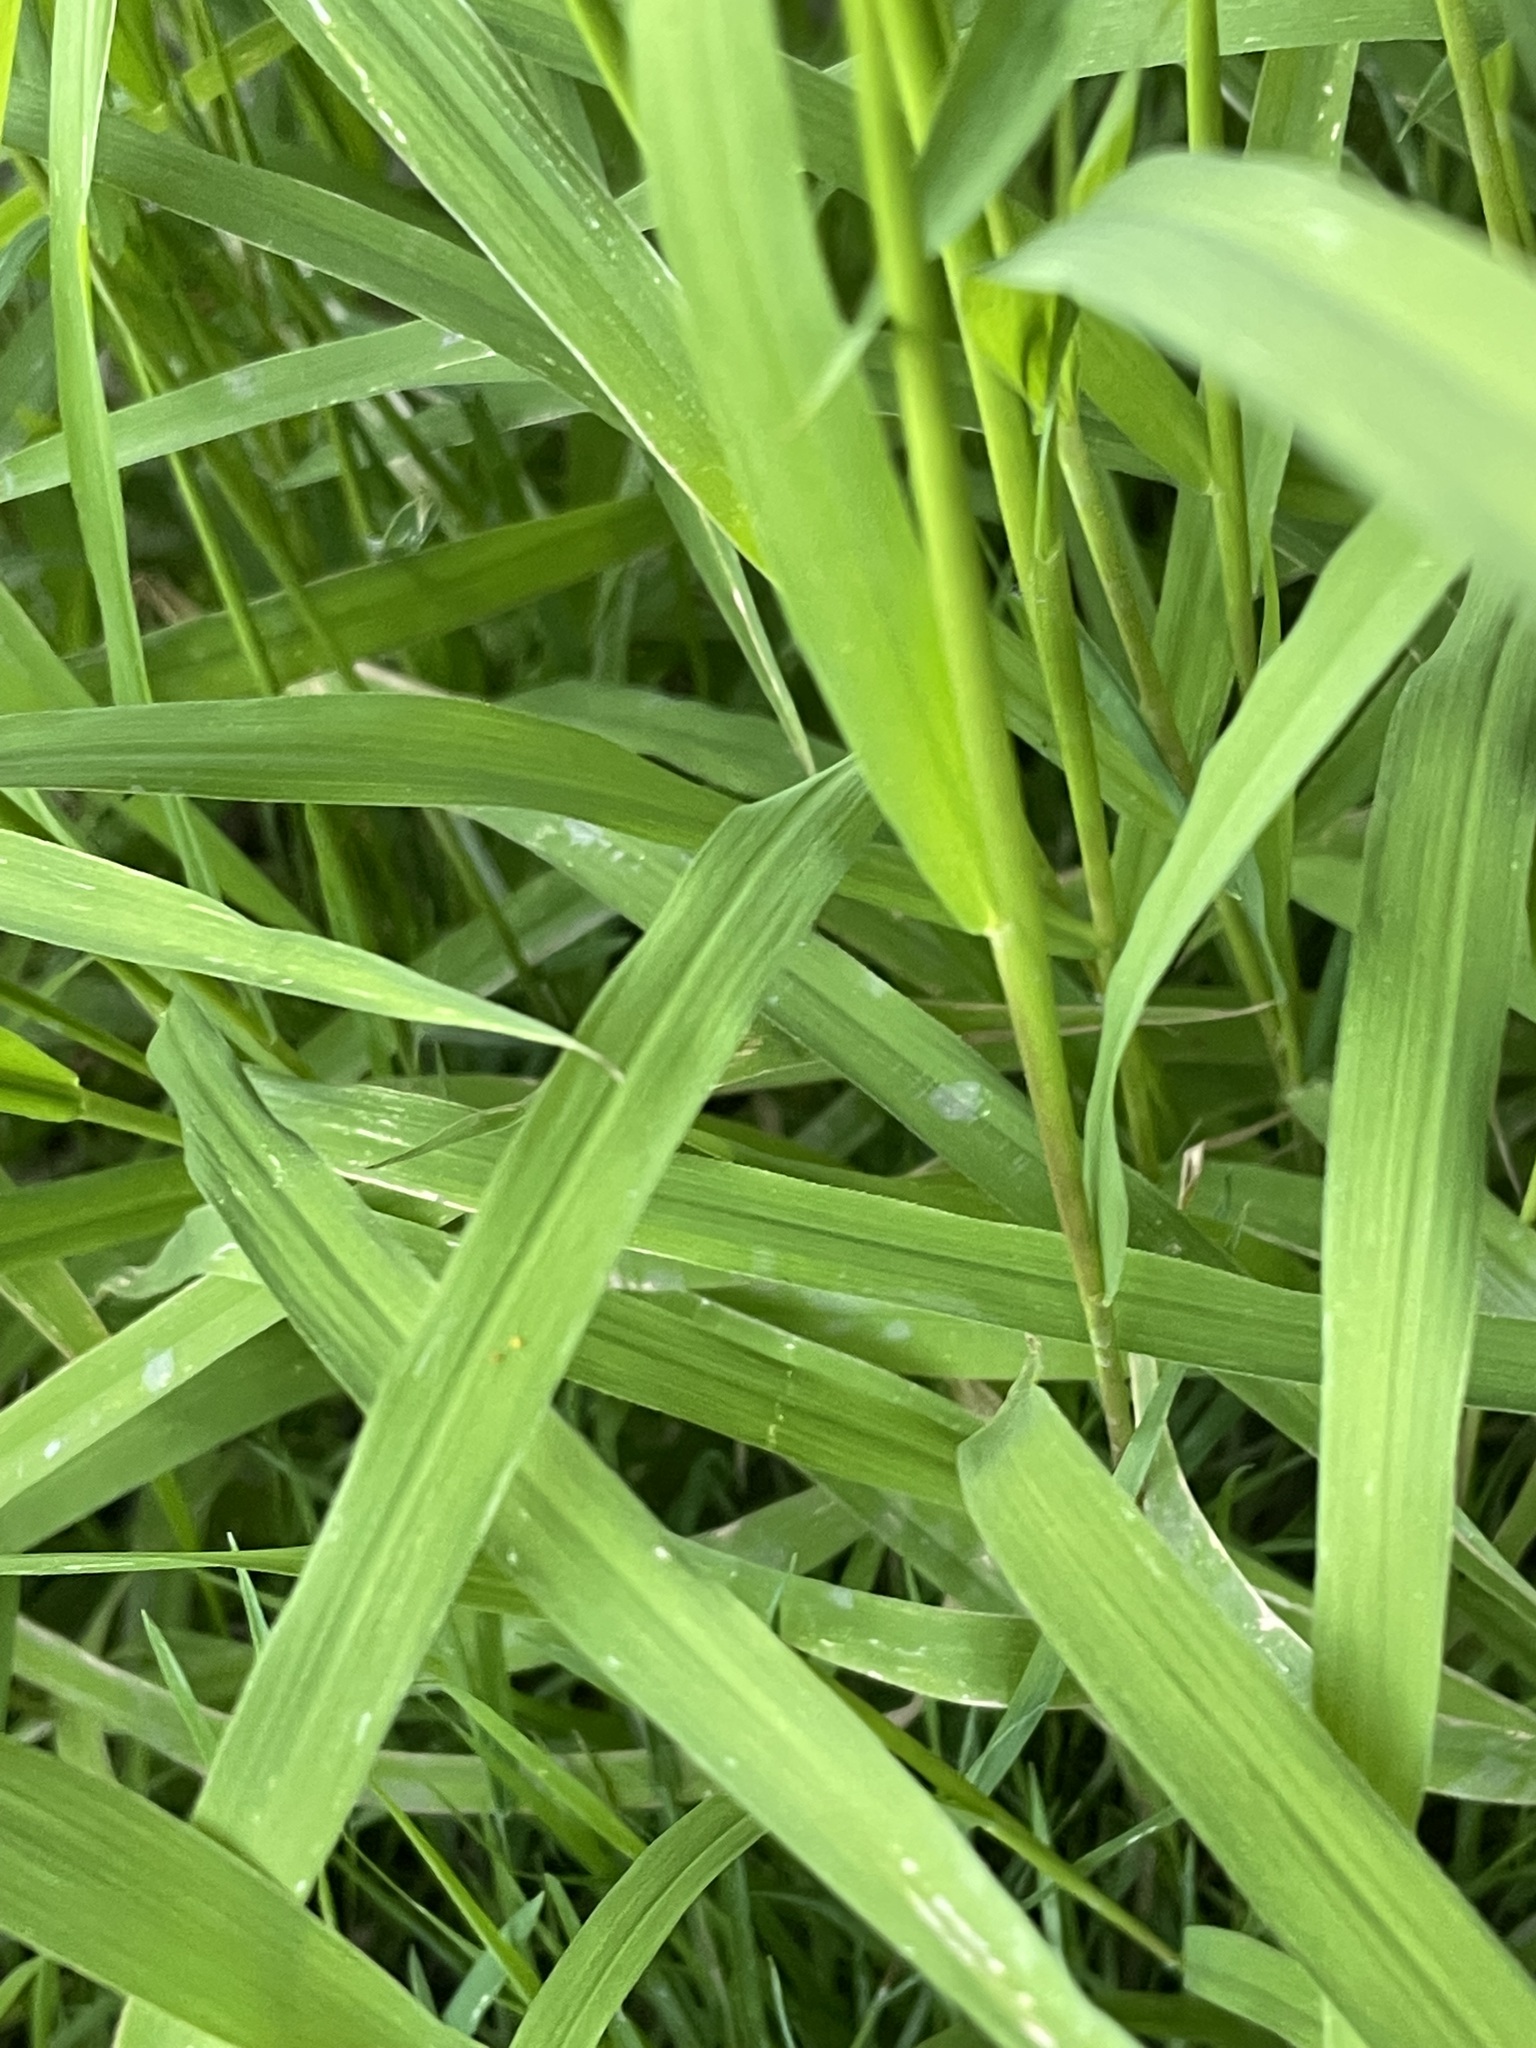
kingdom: Plantae
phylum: Tracheophyta
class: Liliopsida
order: Poales
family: Poaceae
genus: Leersia
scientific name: Leersia oryzoides
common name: Cut-grass
